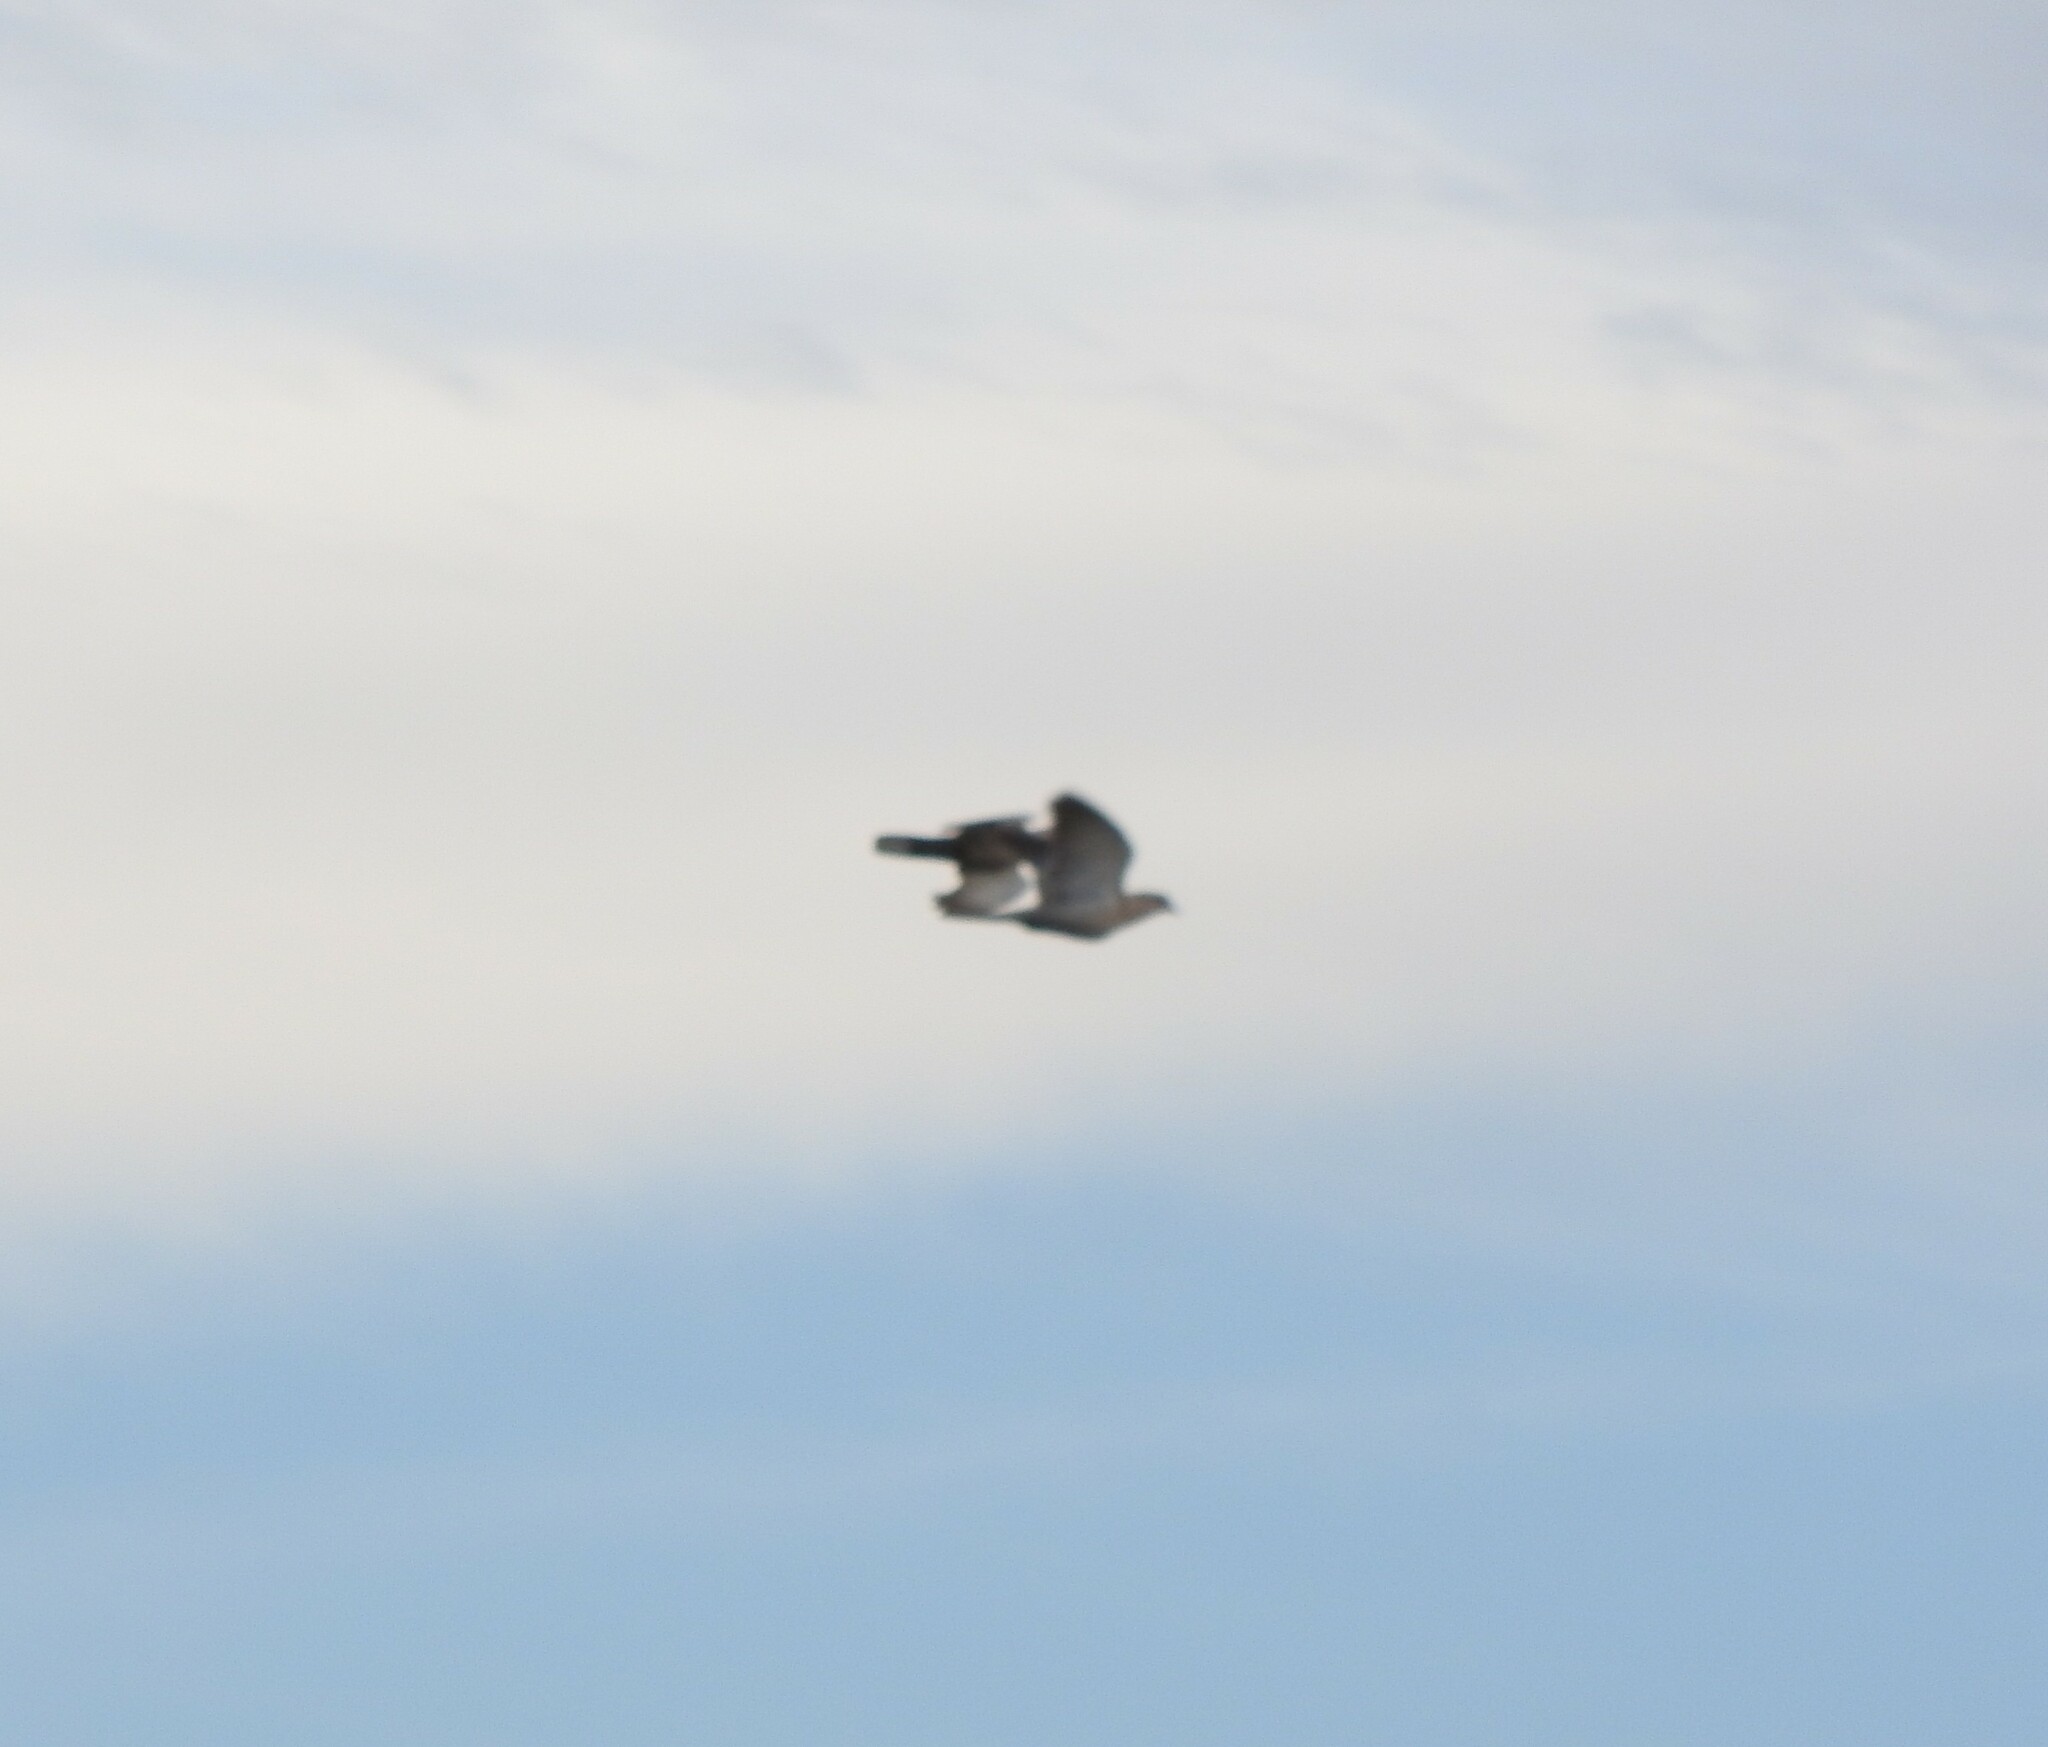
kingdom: Animalia
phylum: Chordata
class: Aves
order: Columbiformes
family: Columbidae
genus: Zenaida
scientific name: Zenaida asiatica
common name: White-winged dove
